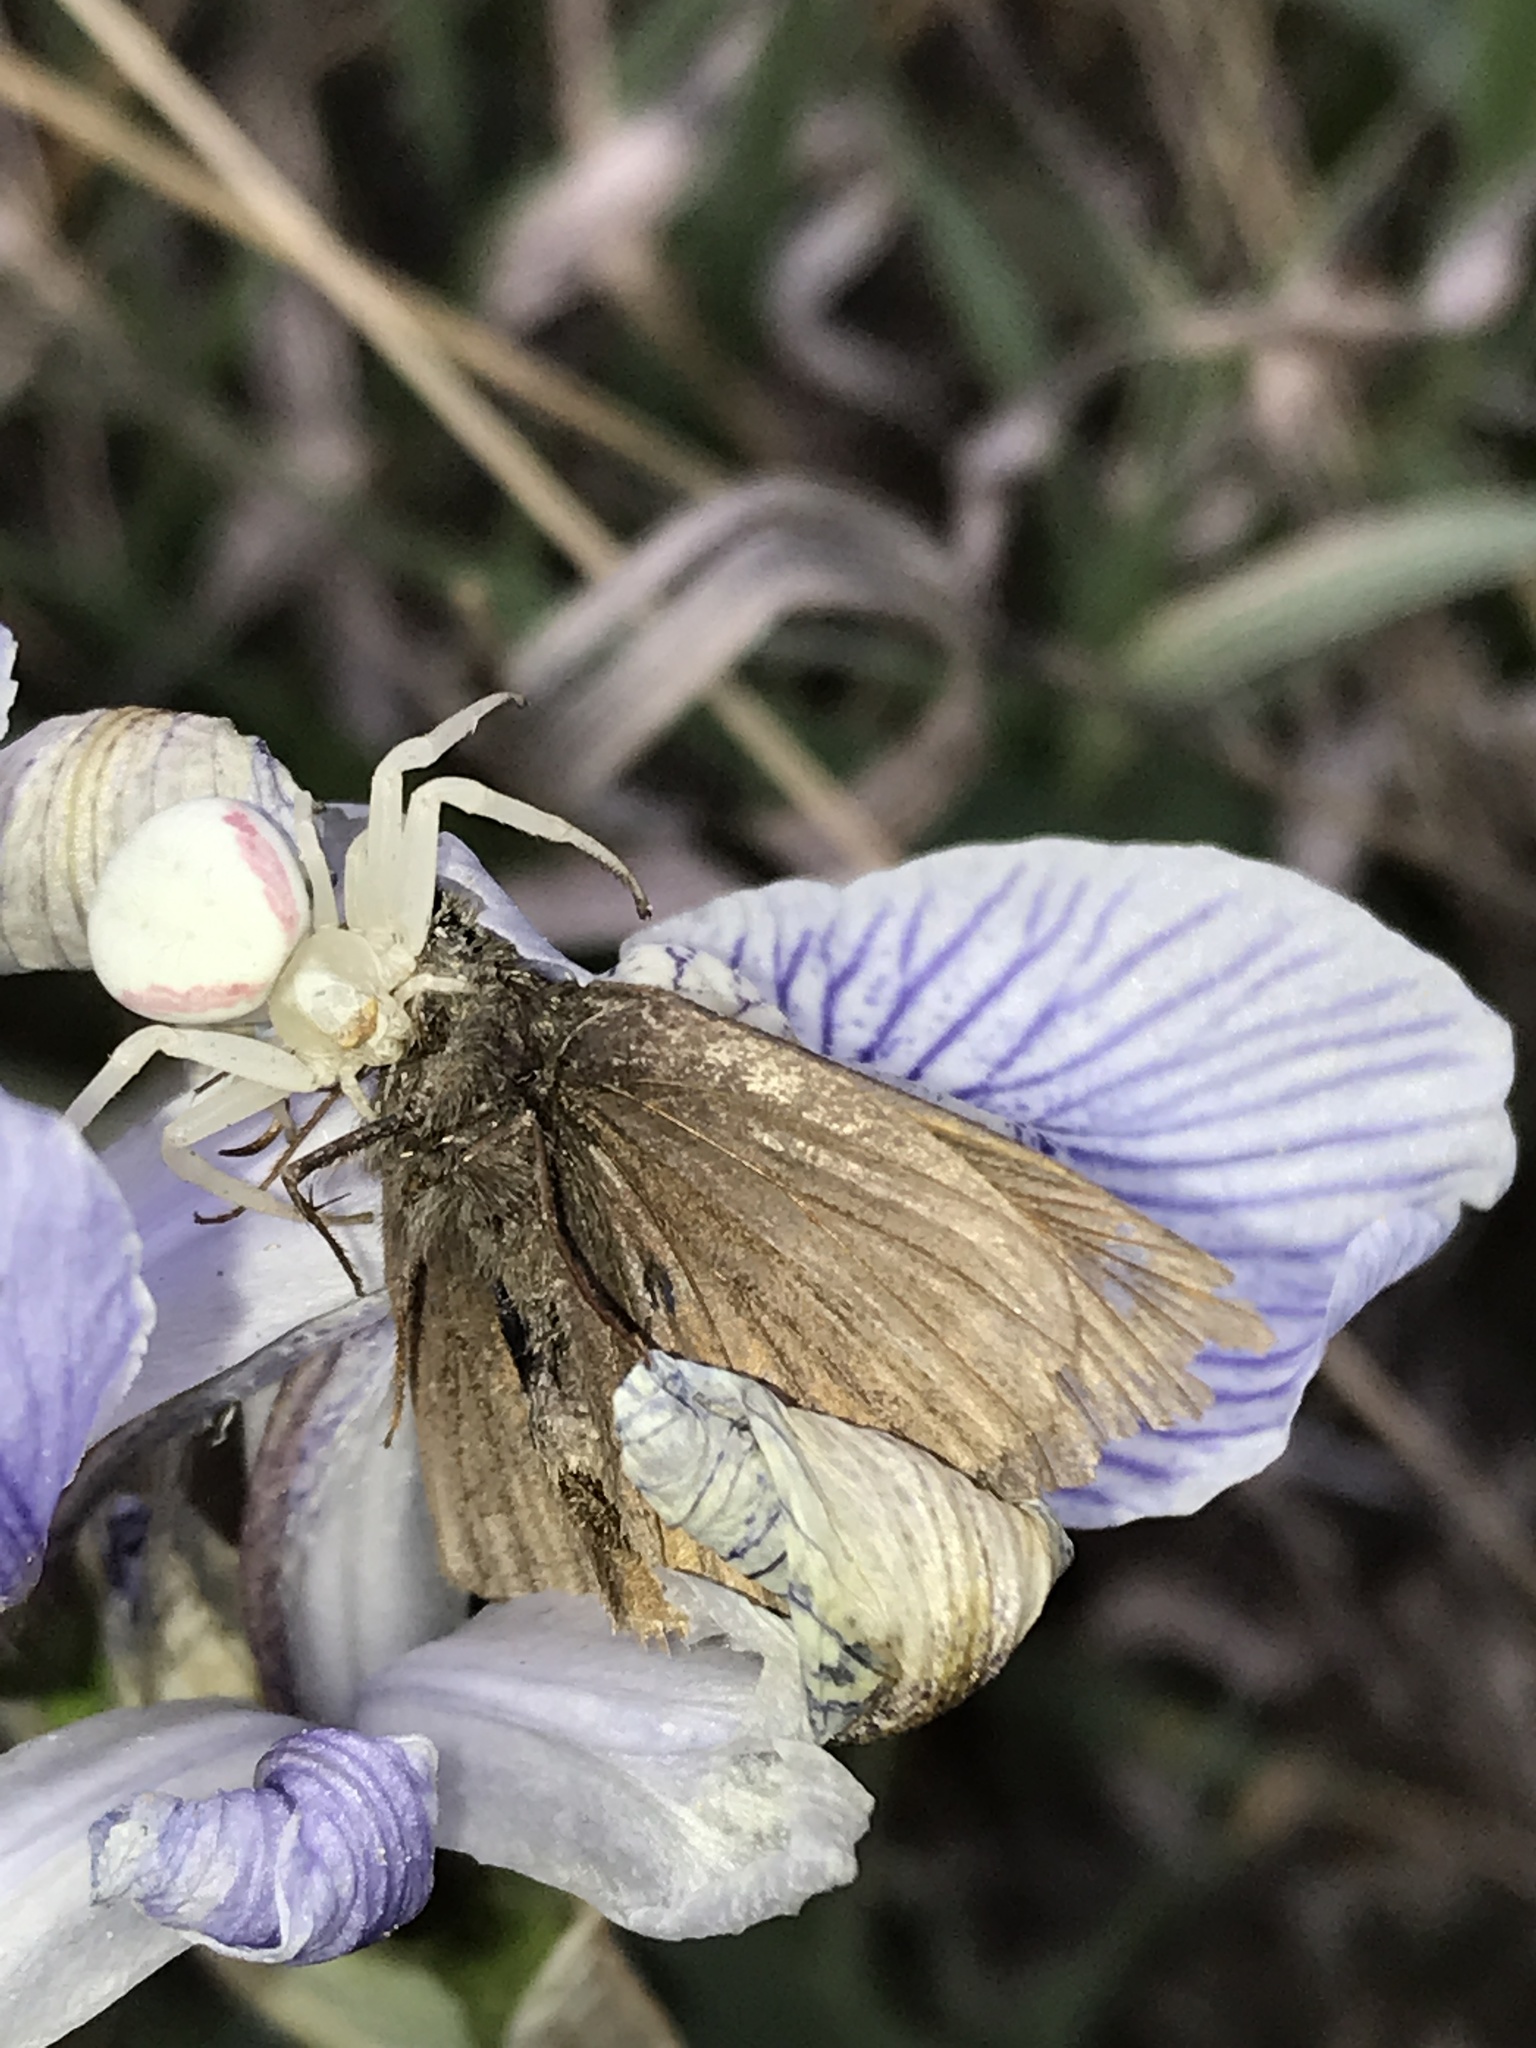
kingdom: Animalia
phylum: Arthropoda
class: Arachnida
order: Araneae
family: Thomisidae
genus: Misumena
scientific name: Misumena vatia
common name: Goldenrod crab spider
